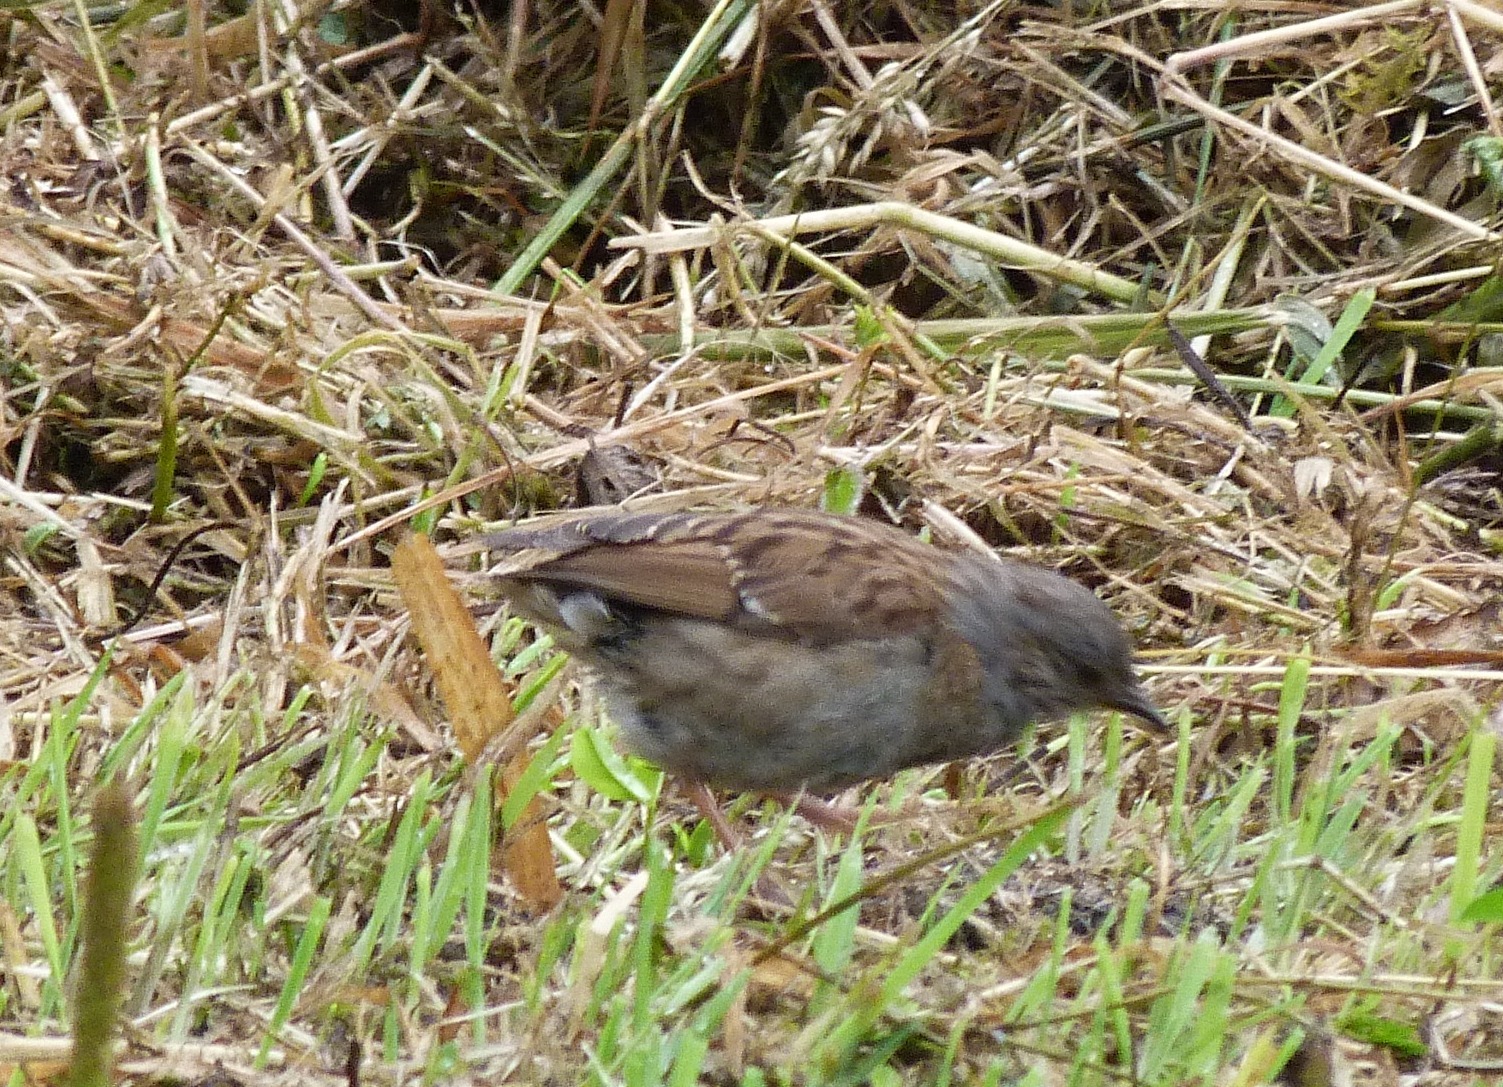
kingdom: Animalia
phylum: Chordata
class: Aves
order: Passeriformes
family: Prunellidae
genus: Prunella
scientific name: Prunella modularis
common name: Dunnock
